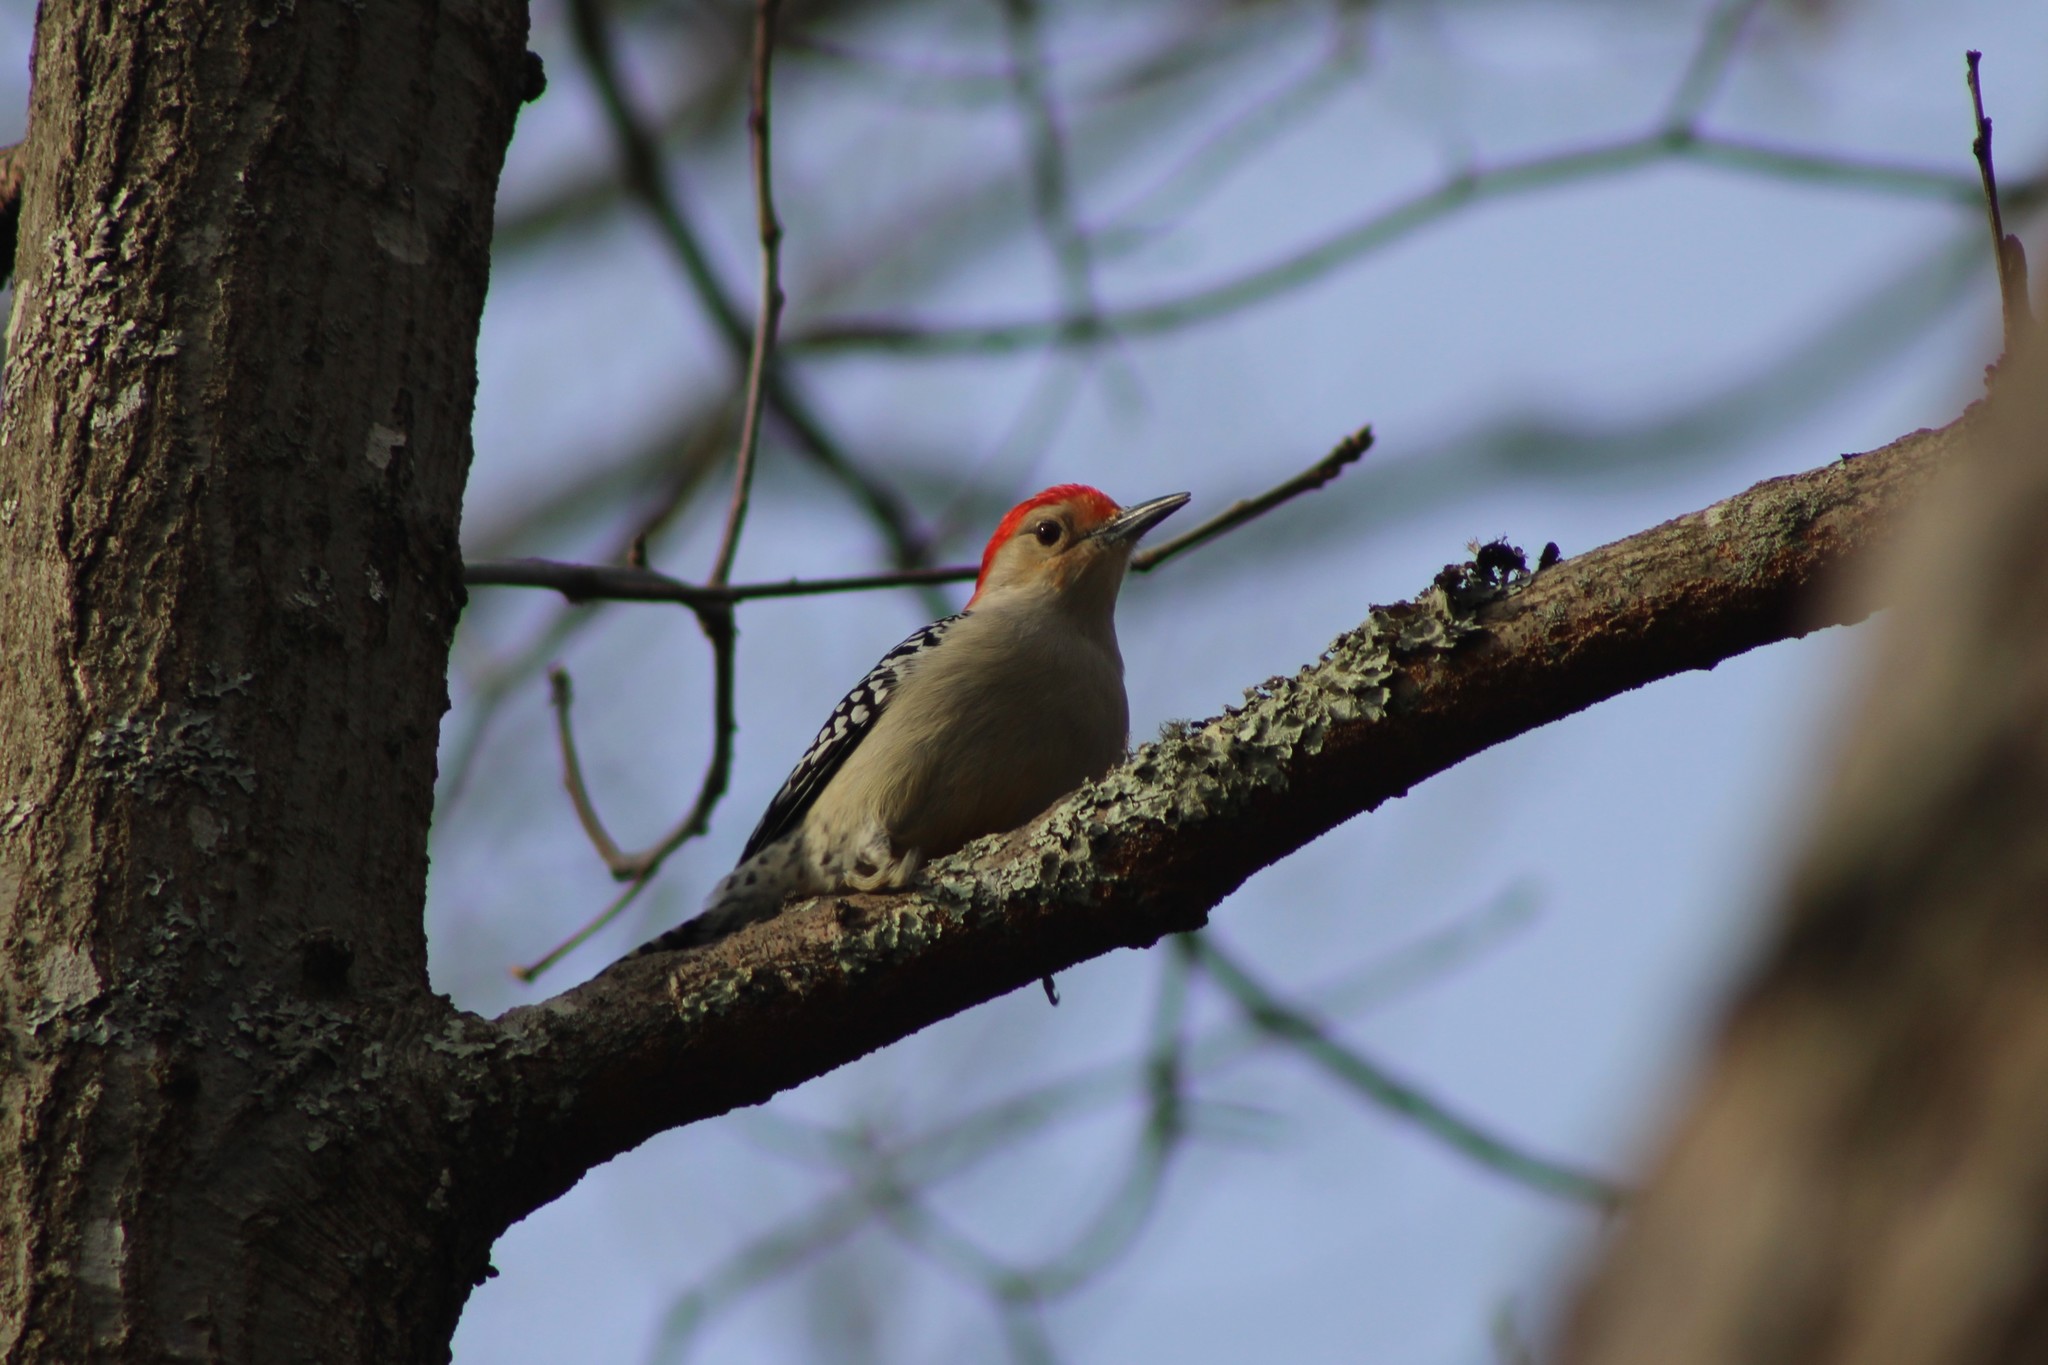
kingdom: Animalia
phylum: Chordata
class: Aves
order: Piciformes
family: Picidae
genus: Melanerpes
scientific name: Melanerpes carolinus
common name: Red-bellied woodpecker
